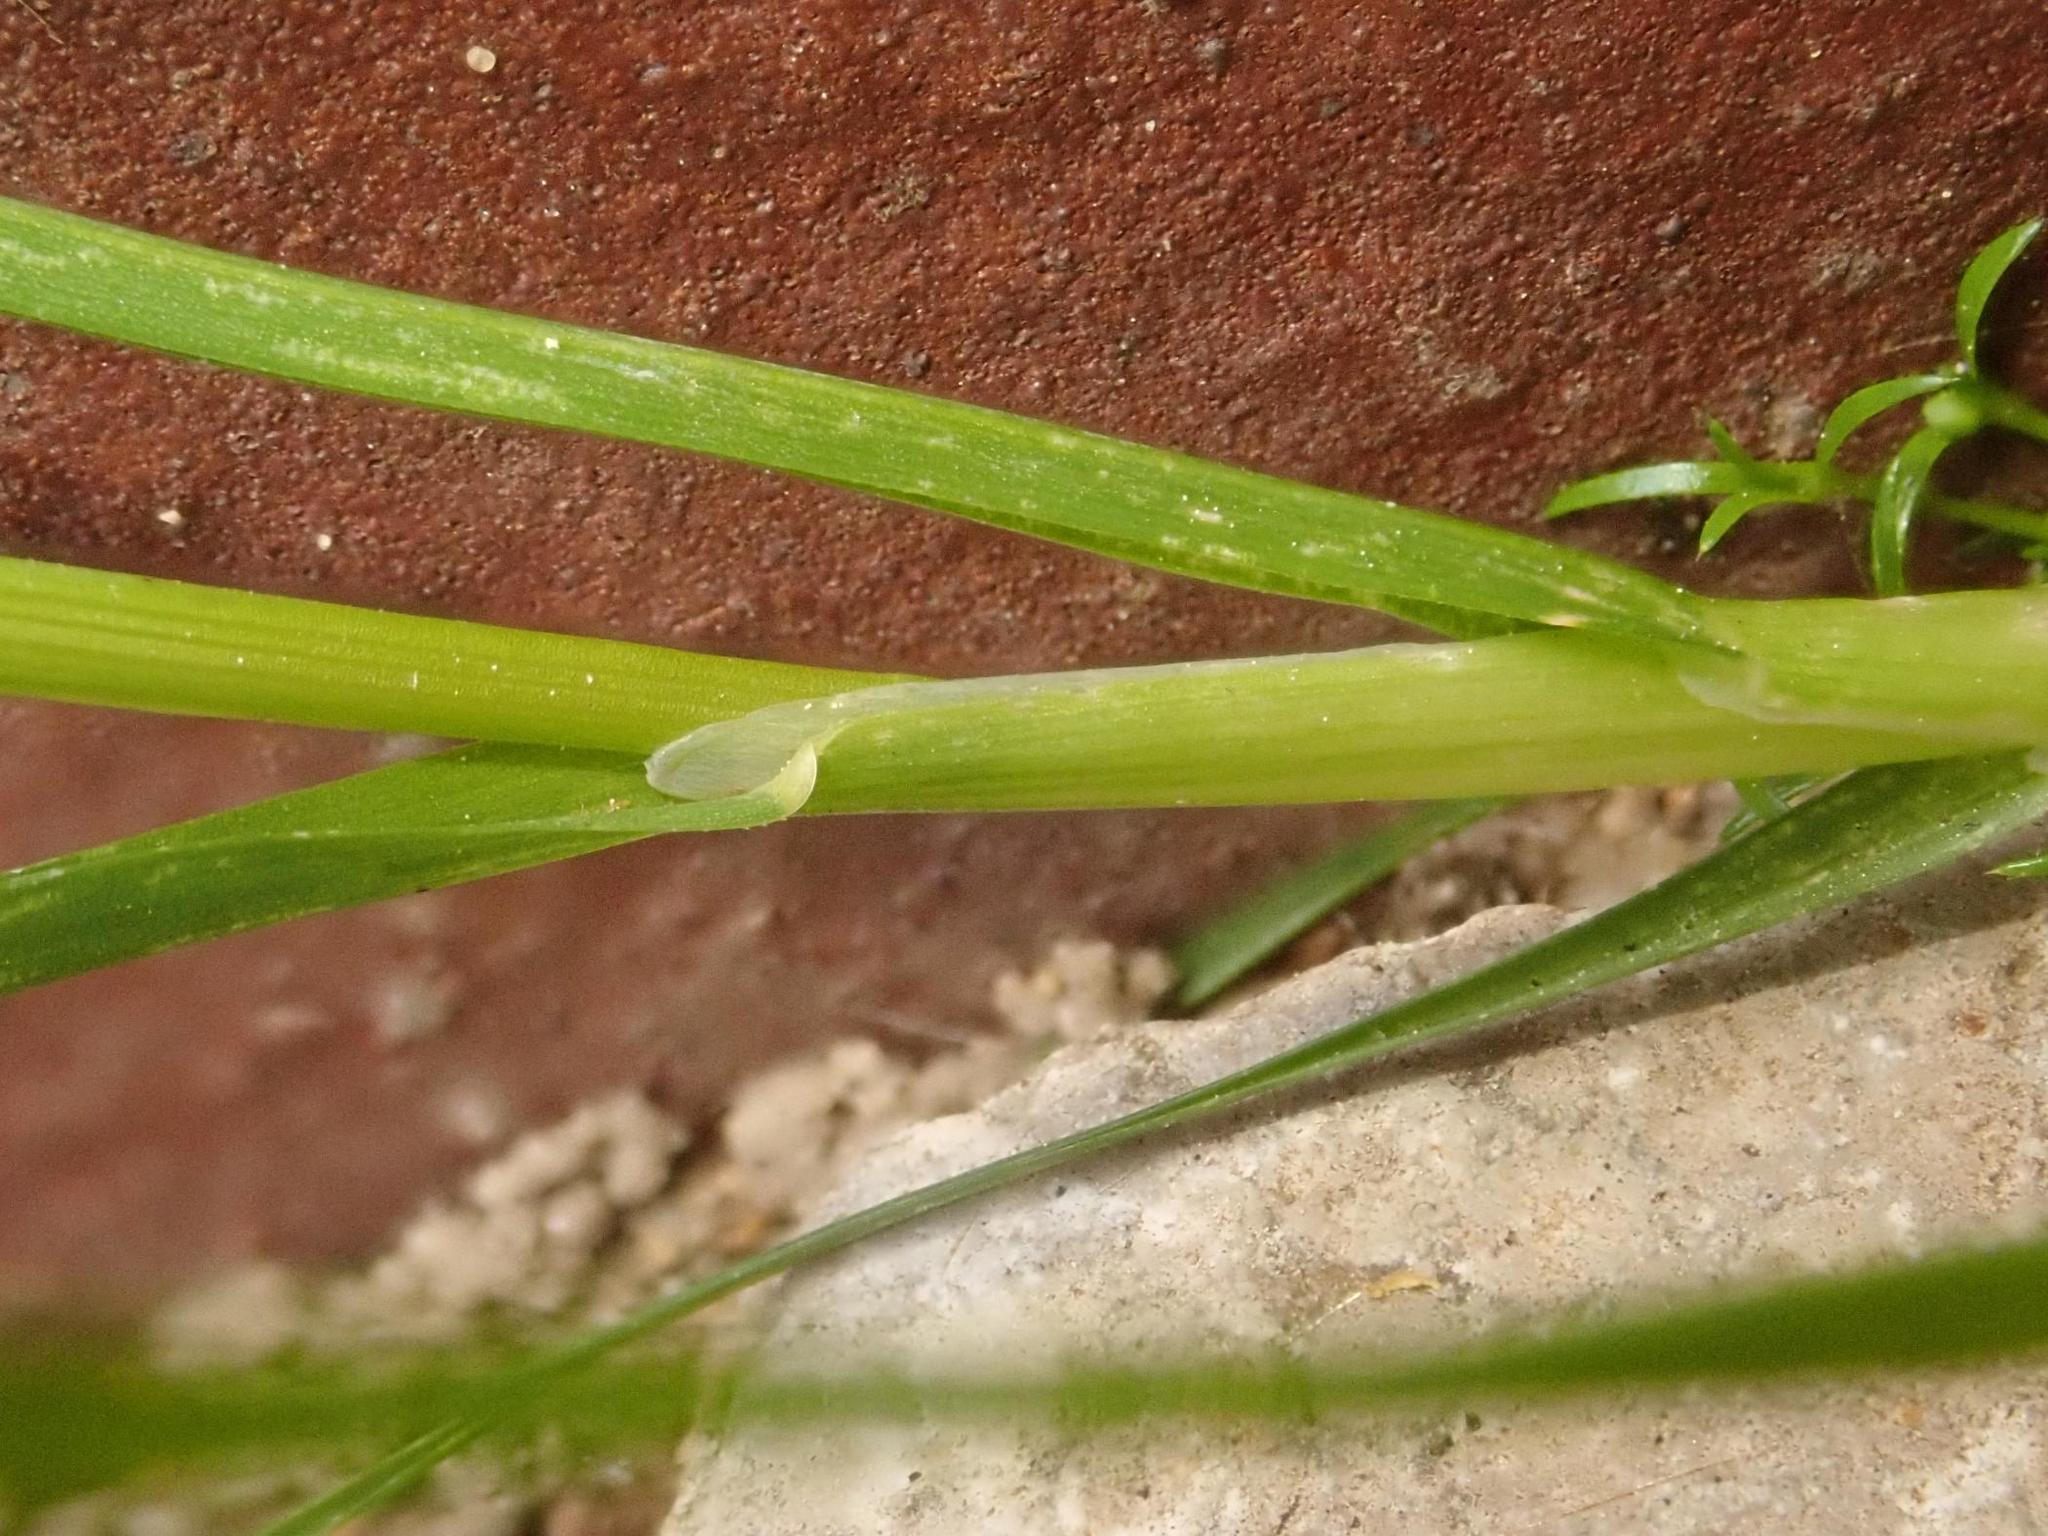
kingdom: Plantae
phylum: Tracheophyta
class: Liliopsida
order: Poales
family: Poaceae
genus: Poa
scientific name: Poa annua
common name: Annual bluegrass
